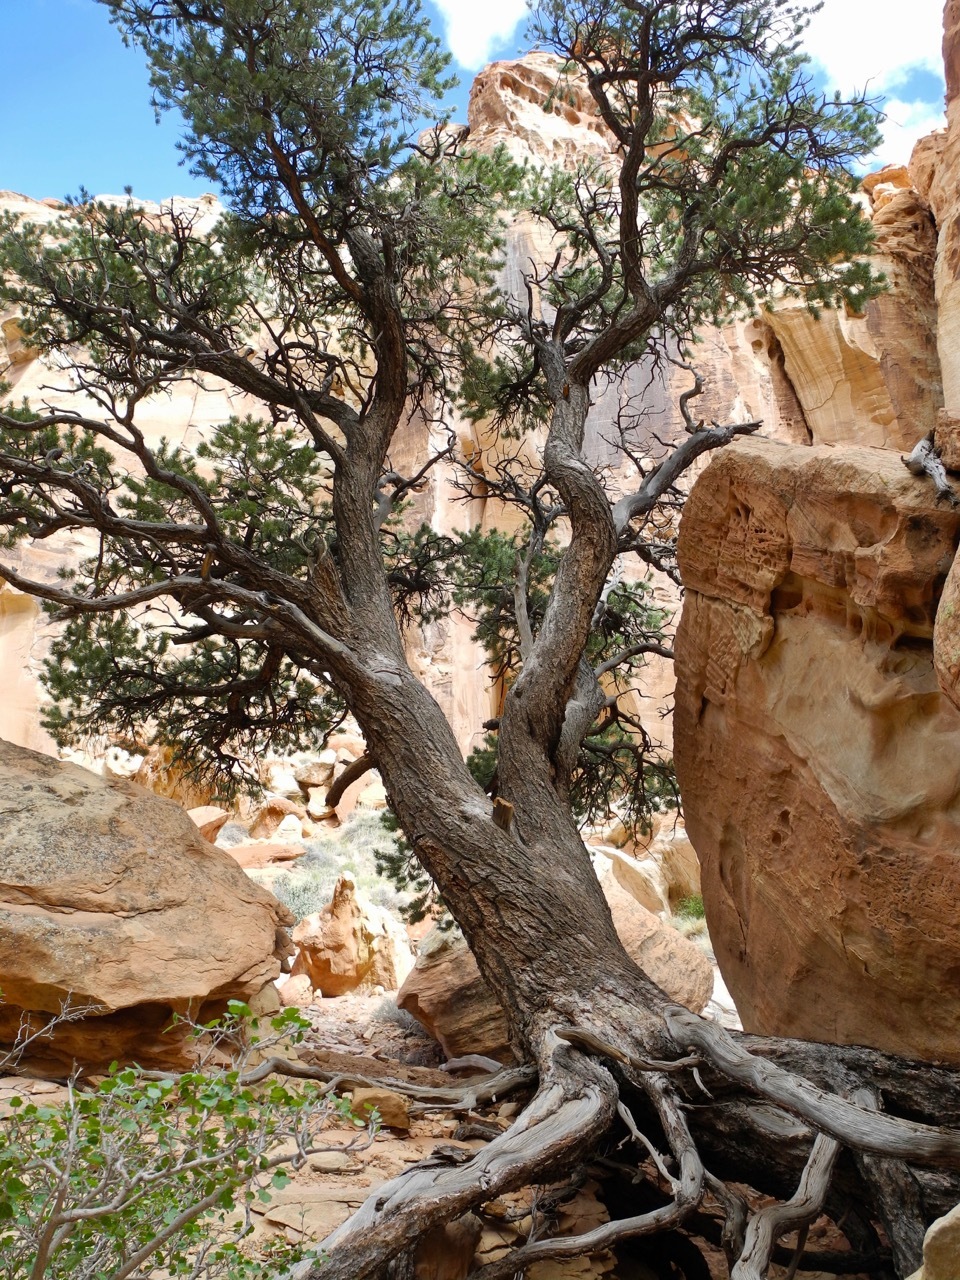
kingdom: Plantae
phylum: Tracheophyta
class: Pinopsida
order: Pinales
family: Pinaceae
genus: Pinus
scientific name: Pinus
